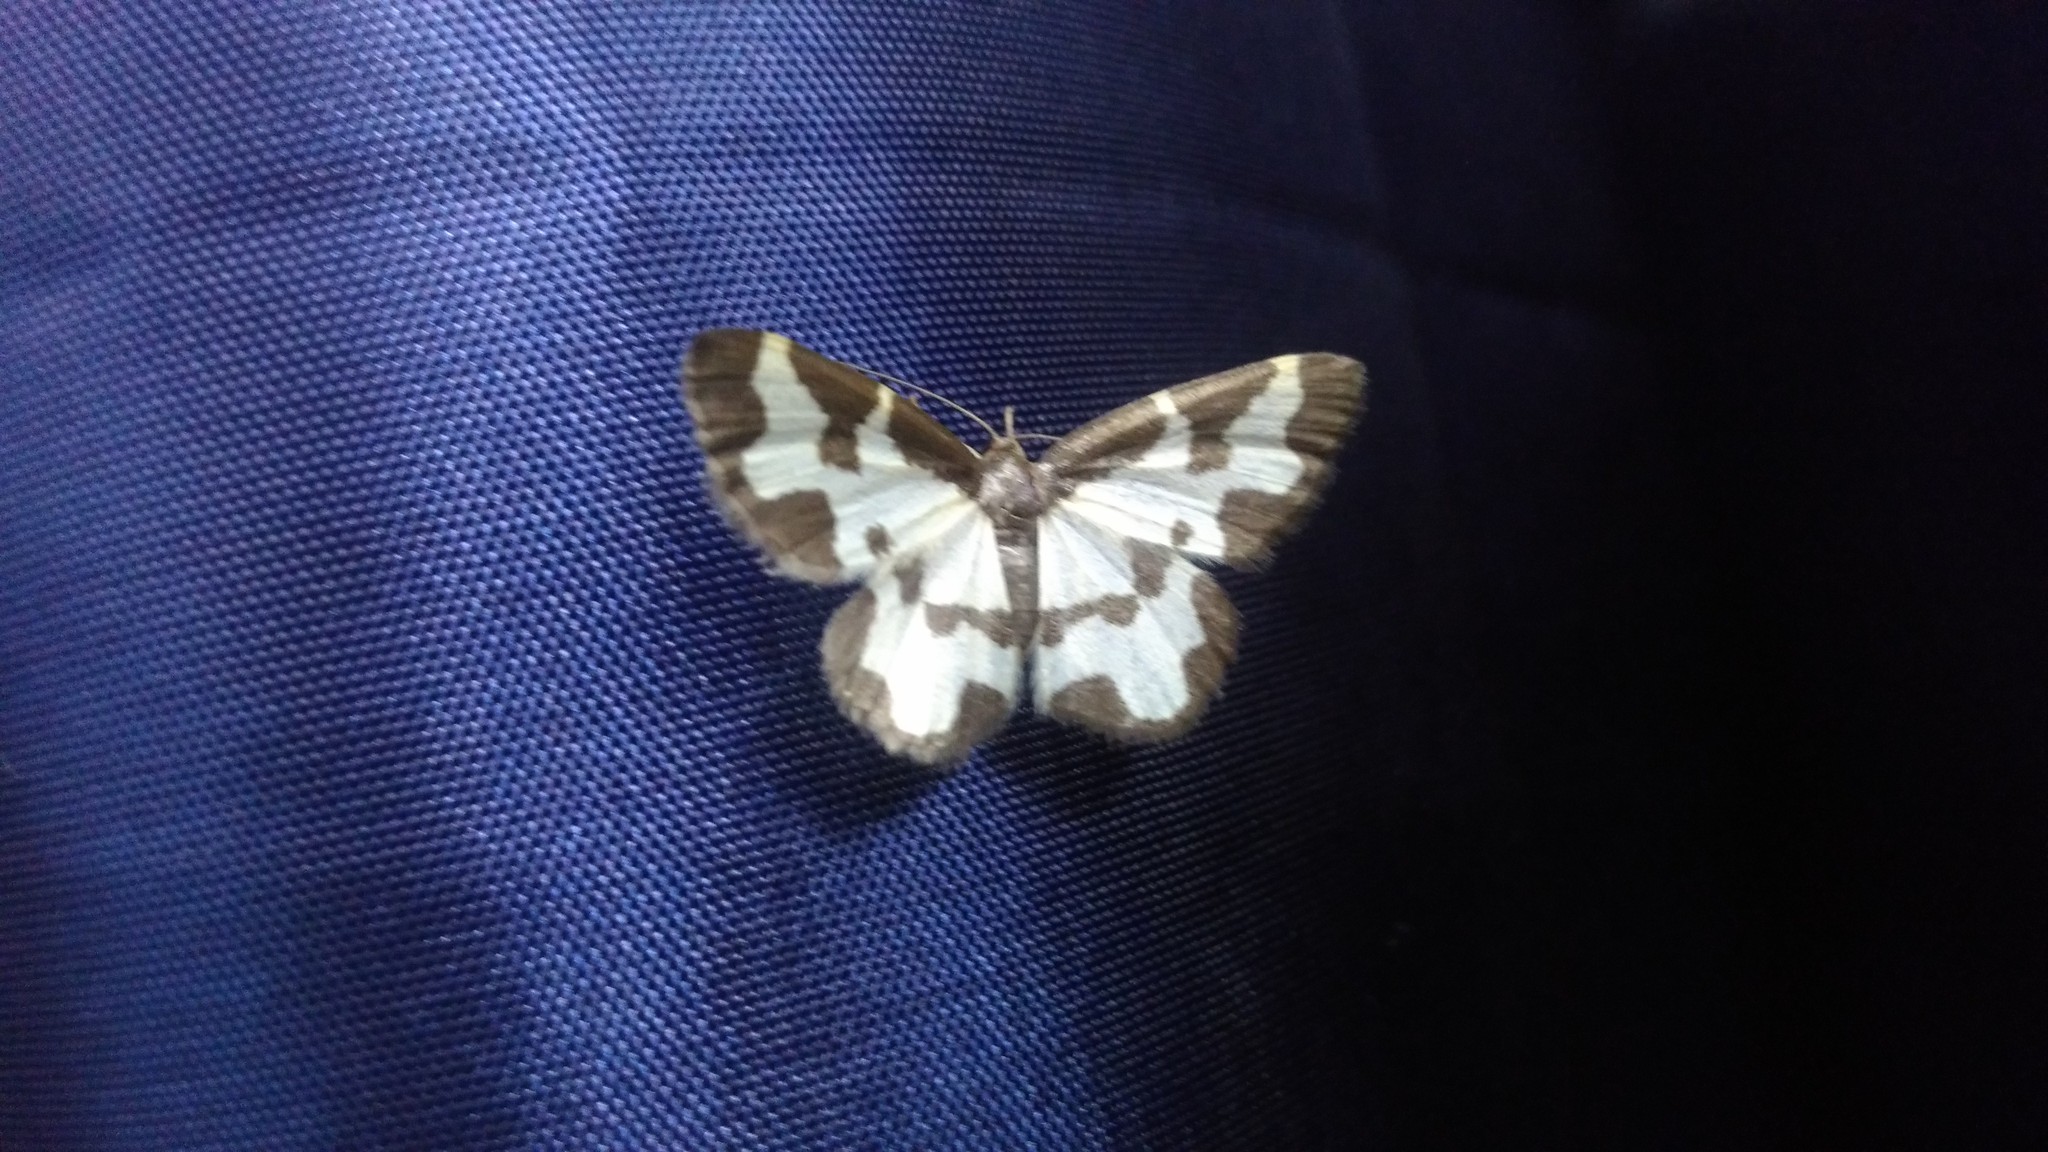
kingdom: Animalia
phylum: Arthropoda
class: Insecta
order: Lepidoptera
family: Geometridae
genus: Lomaspilis
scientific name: Lomaspilis marginata
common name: Clouded border
